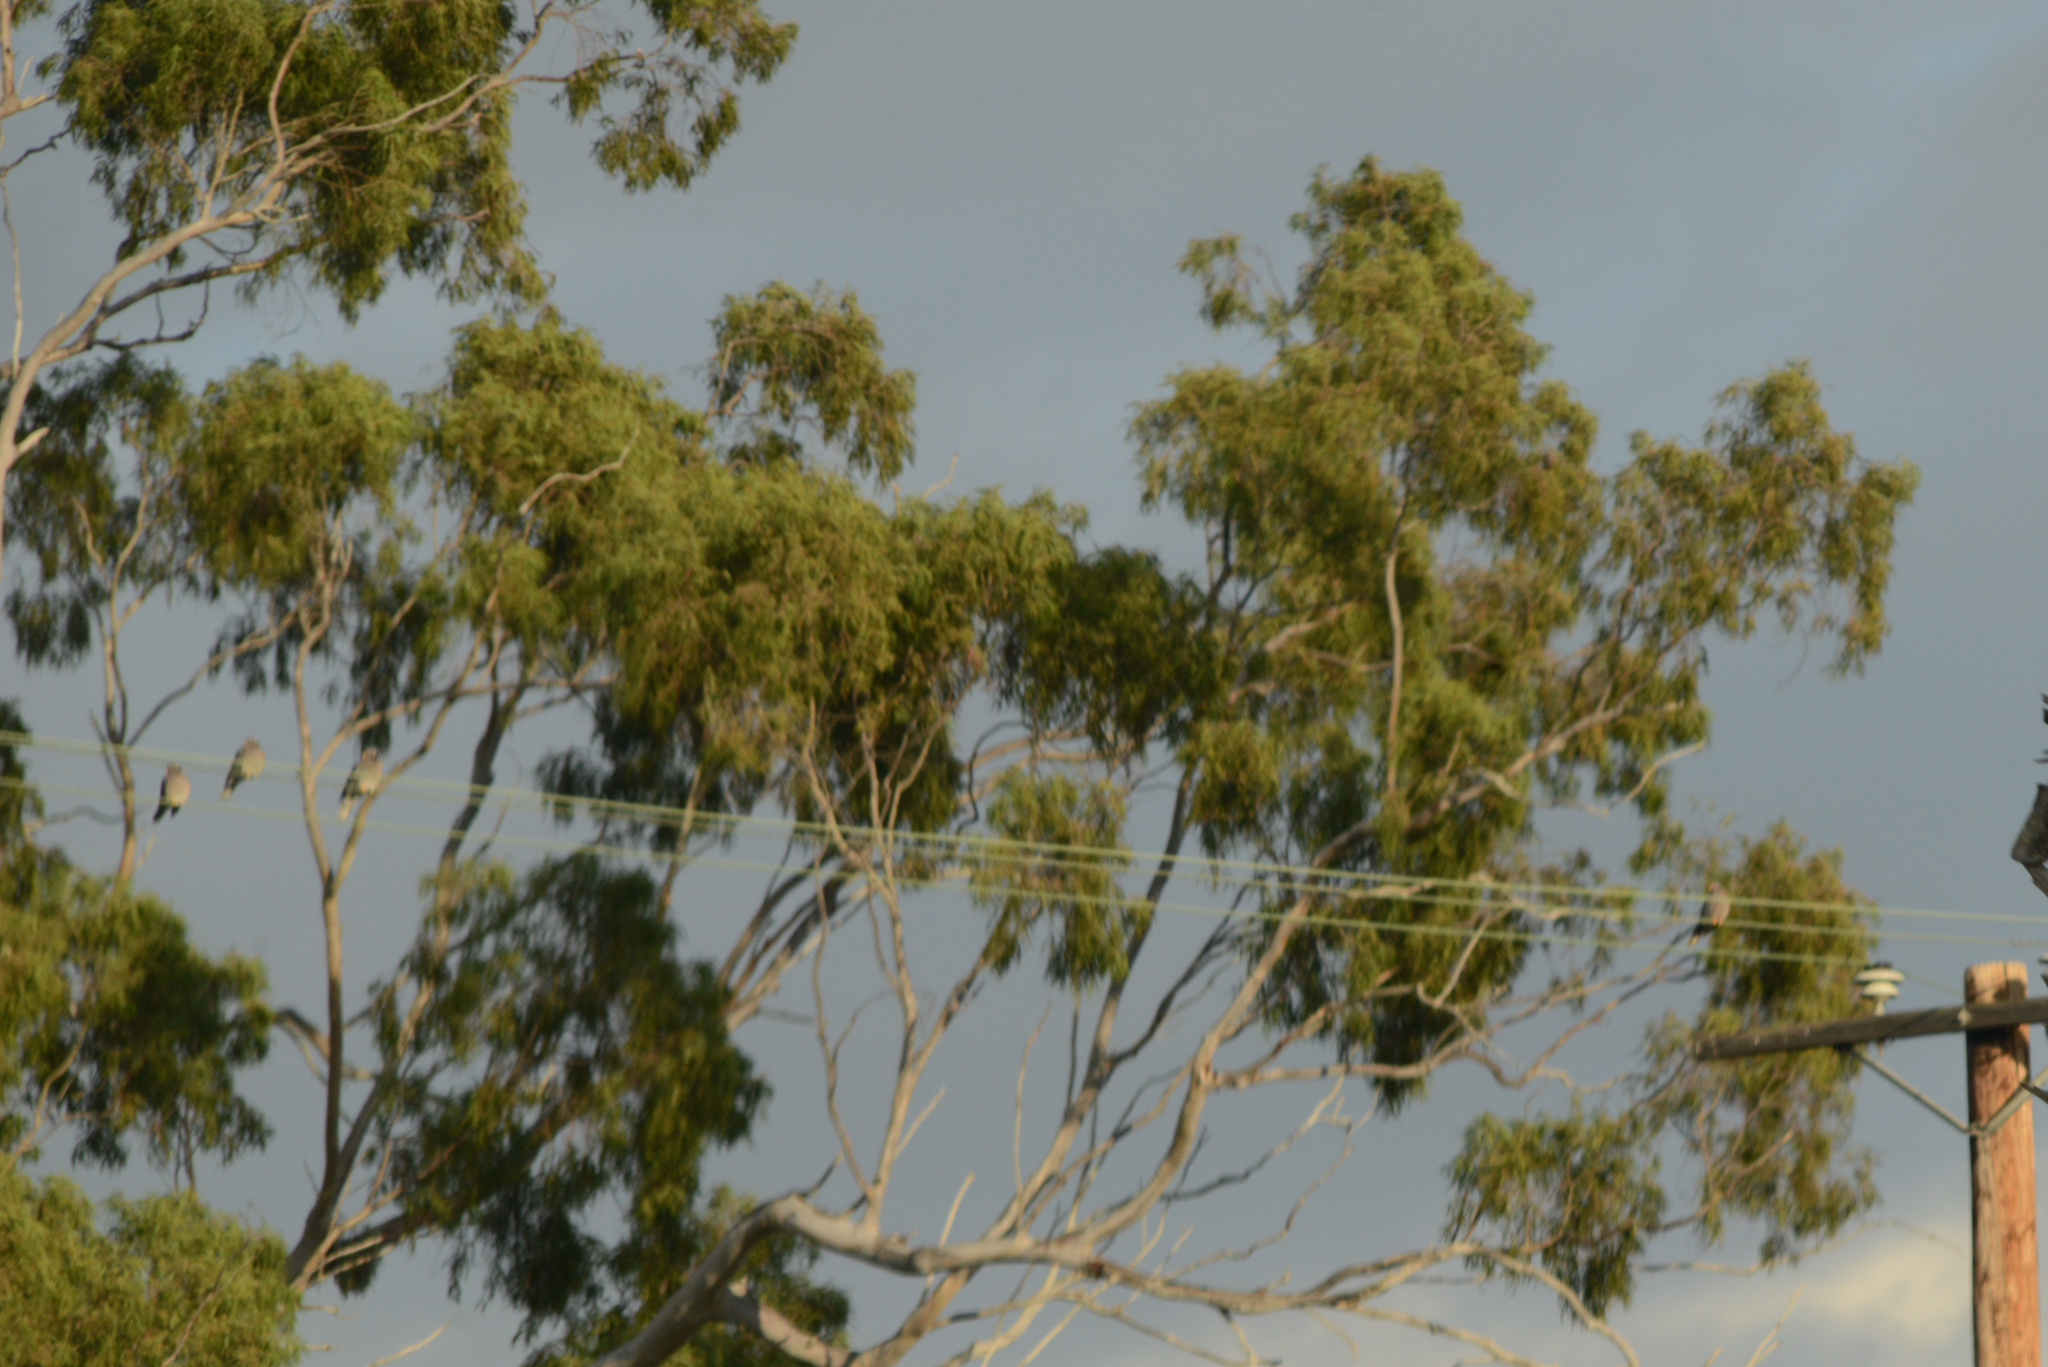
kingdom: Animalia
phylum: Chordata
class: Aves
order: Columbiformes
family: Columbidae
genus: Patagioenas
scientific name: Patagioenas fasciata
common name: Band-tailed pigeon
